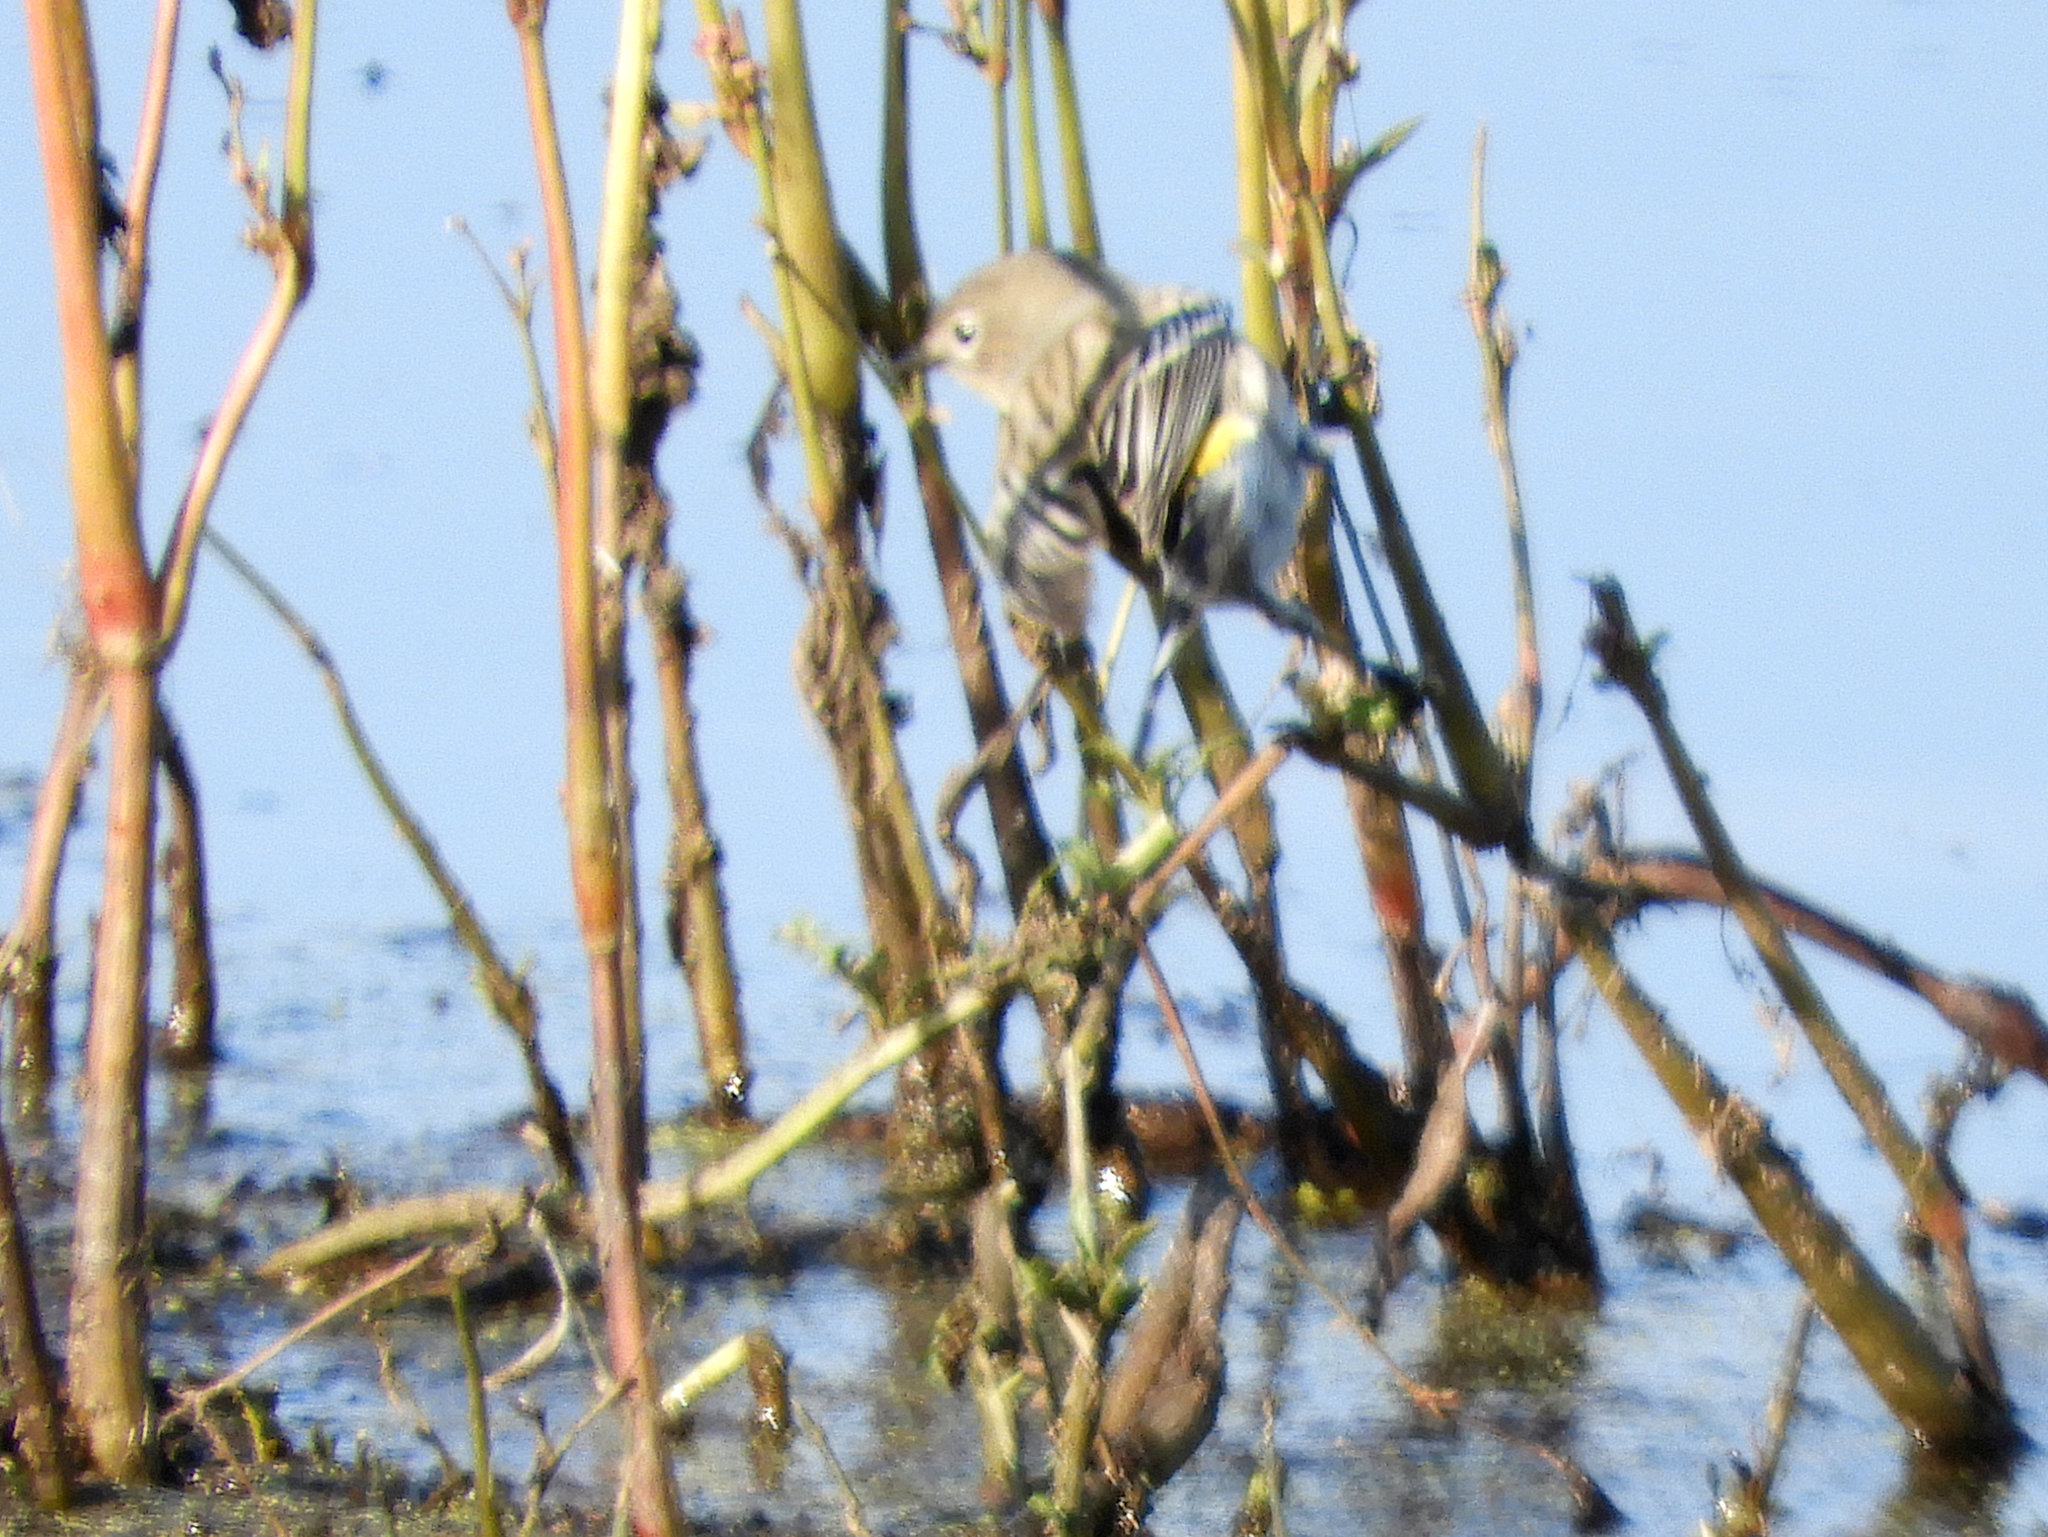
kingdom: Animalia
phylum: Chordata
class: Aves
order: Passeriformes
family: Parulidae
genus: Setophaga
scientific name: Setophaga coronata
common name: Myrtle warbler
